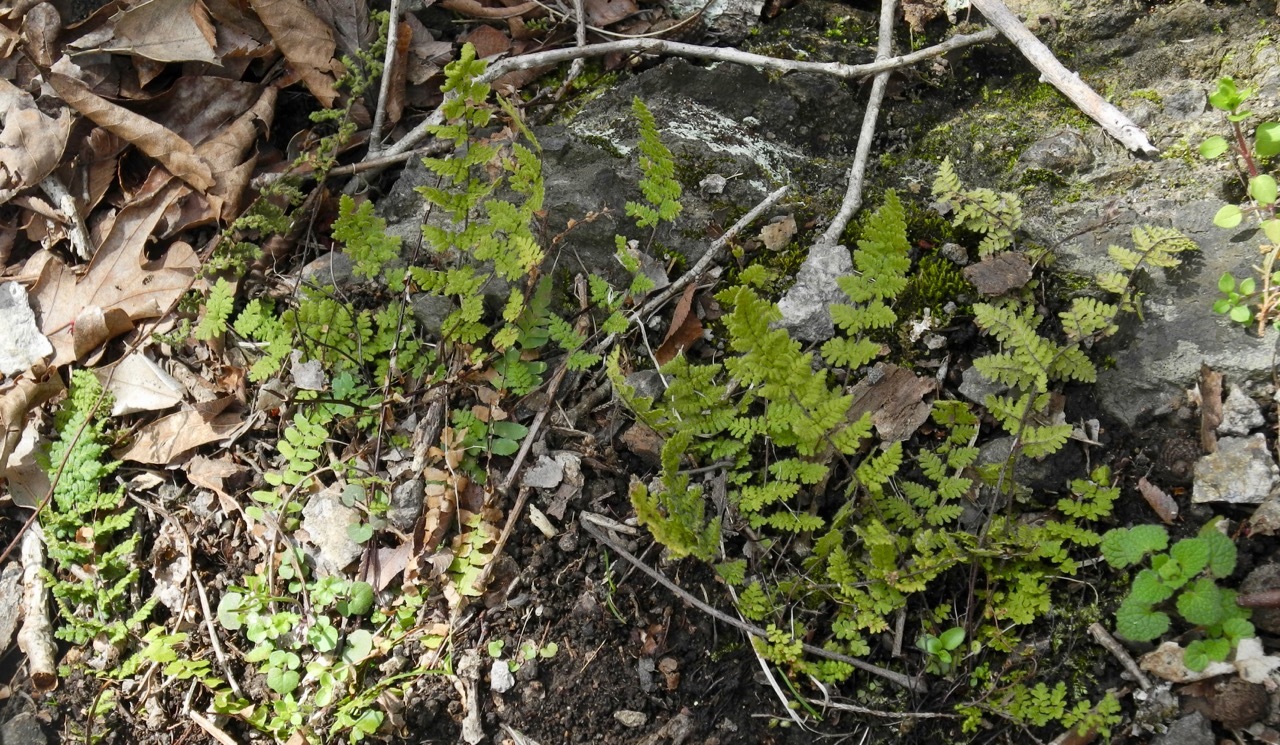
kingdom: Plantae
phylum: Tracheophyta
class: Polypodiopsida
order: Polypodiales
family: Pteridaceae
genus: Myriopteris
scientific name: Myriopteris lanosa
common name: Hairy lip fern
